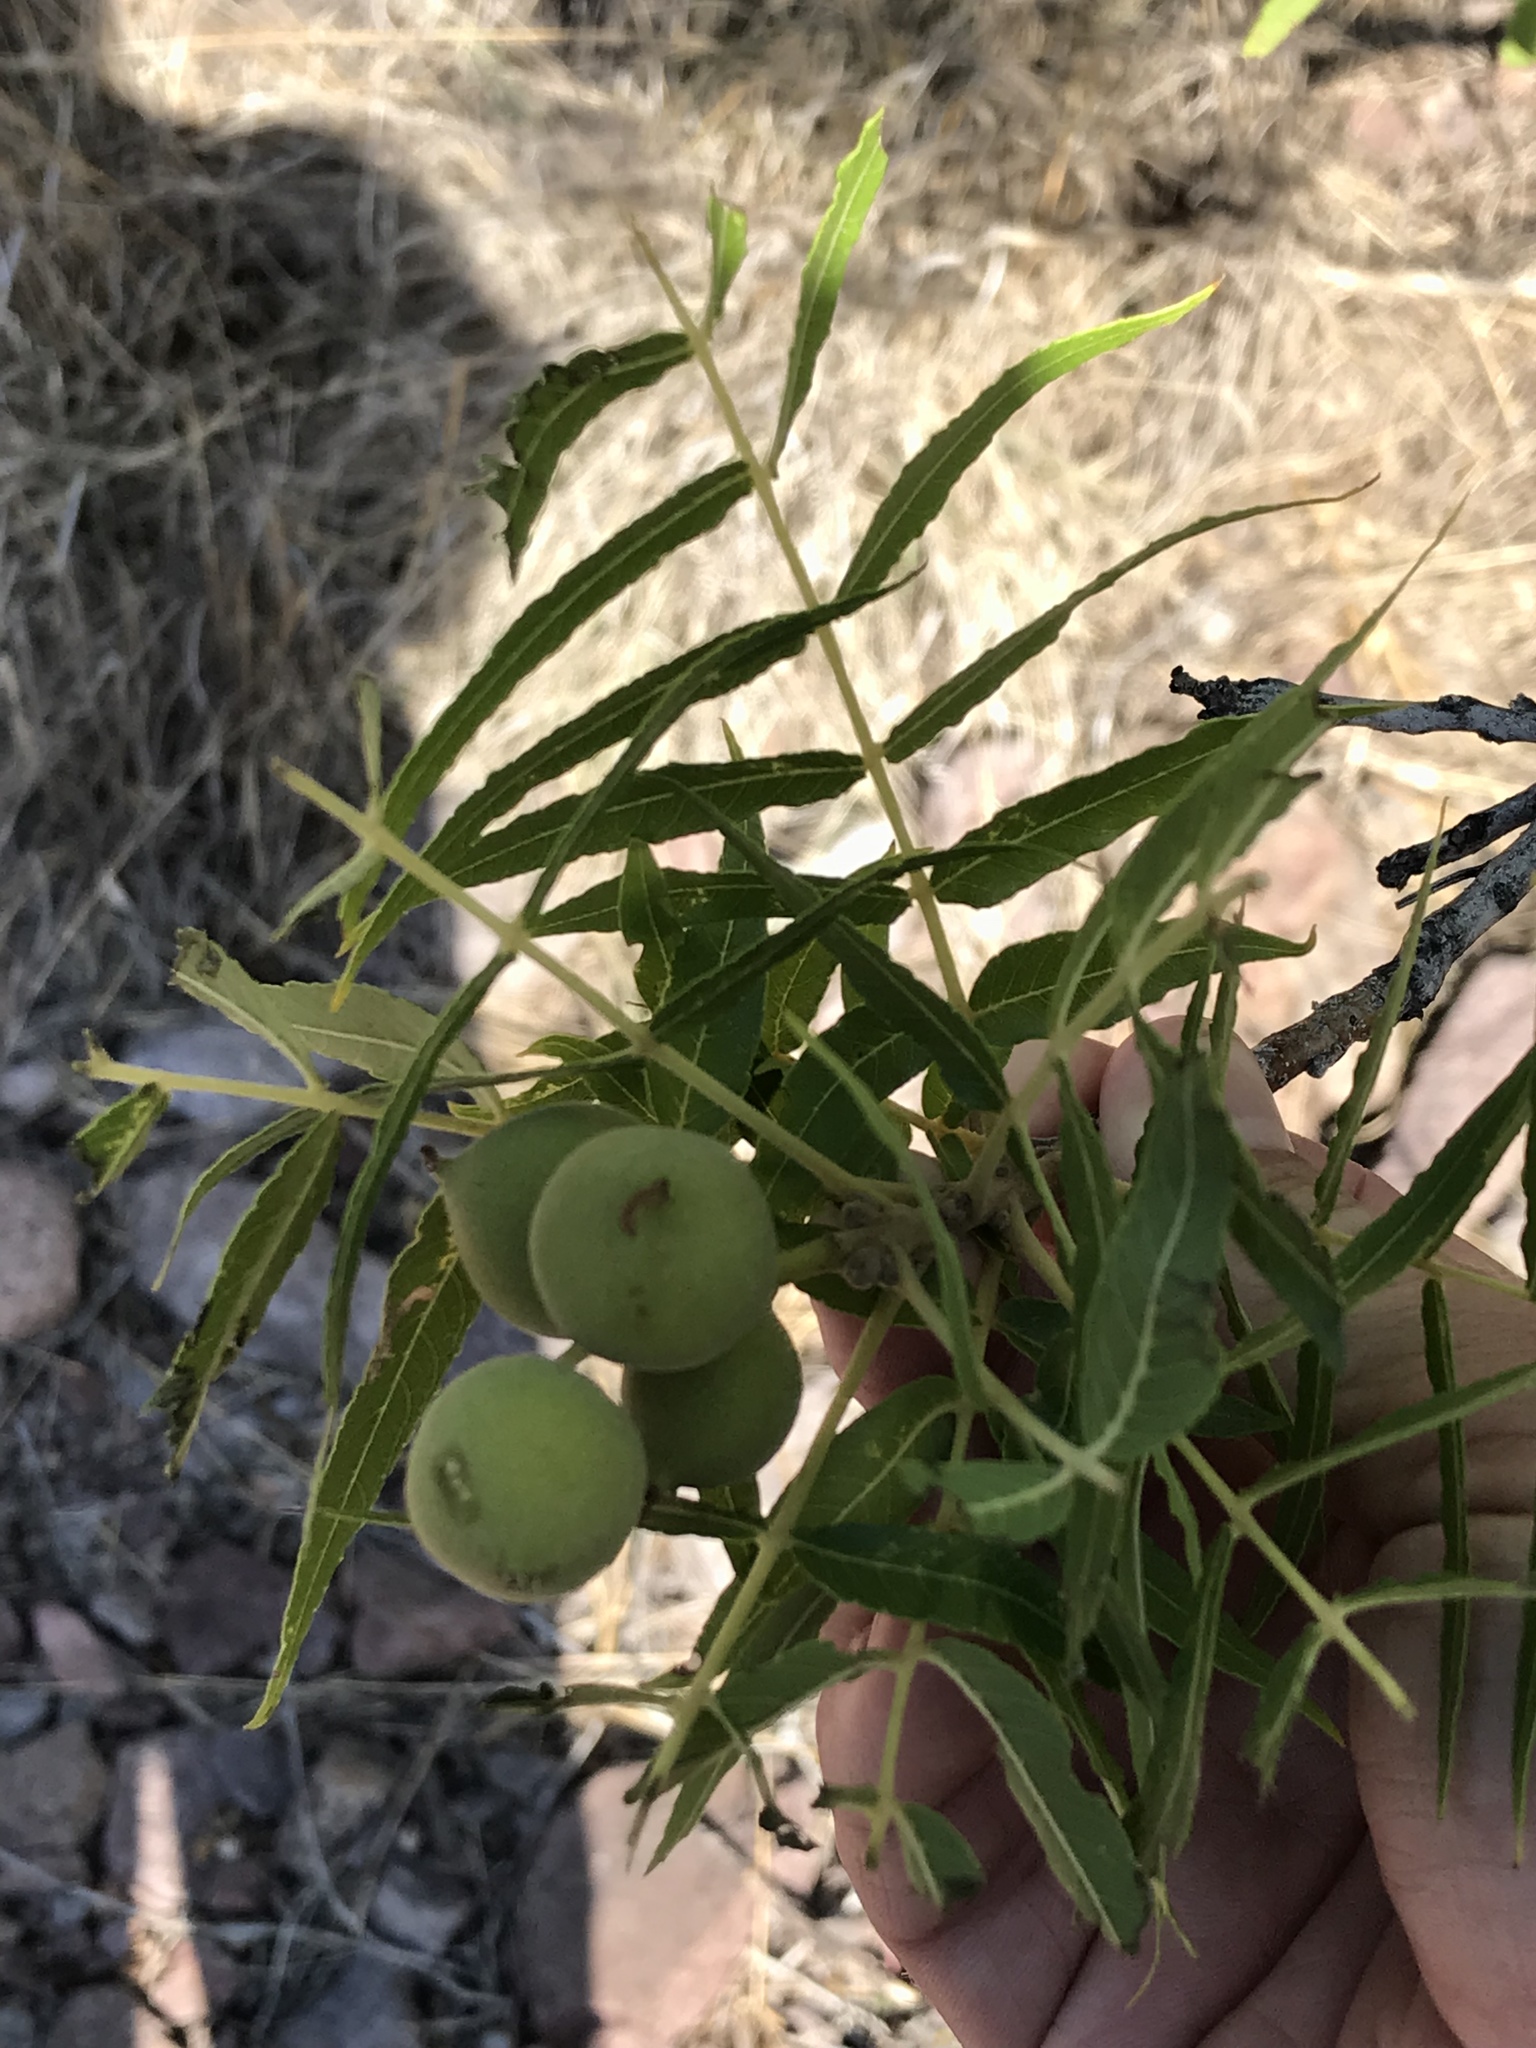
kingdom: Plantae
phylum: Tracheophyta
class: Magnoliopsida
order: Fagales
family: Juglandaceae
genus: Juglans
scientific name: Juglans microcarpa
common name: Texas walnut
